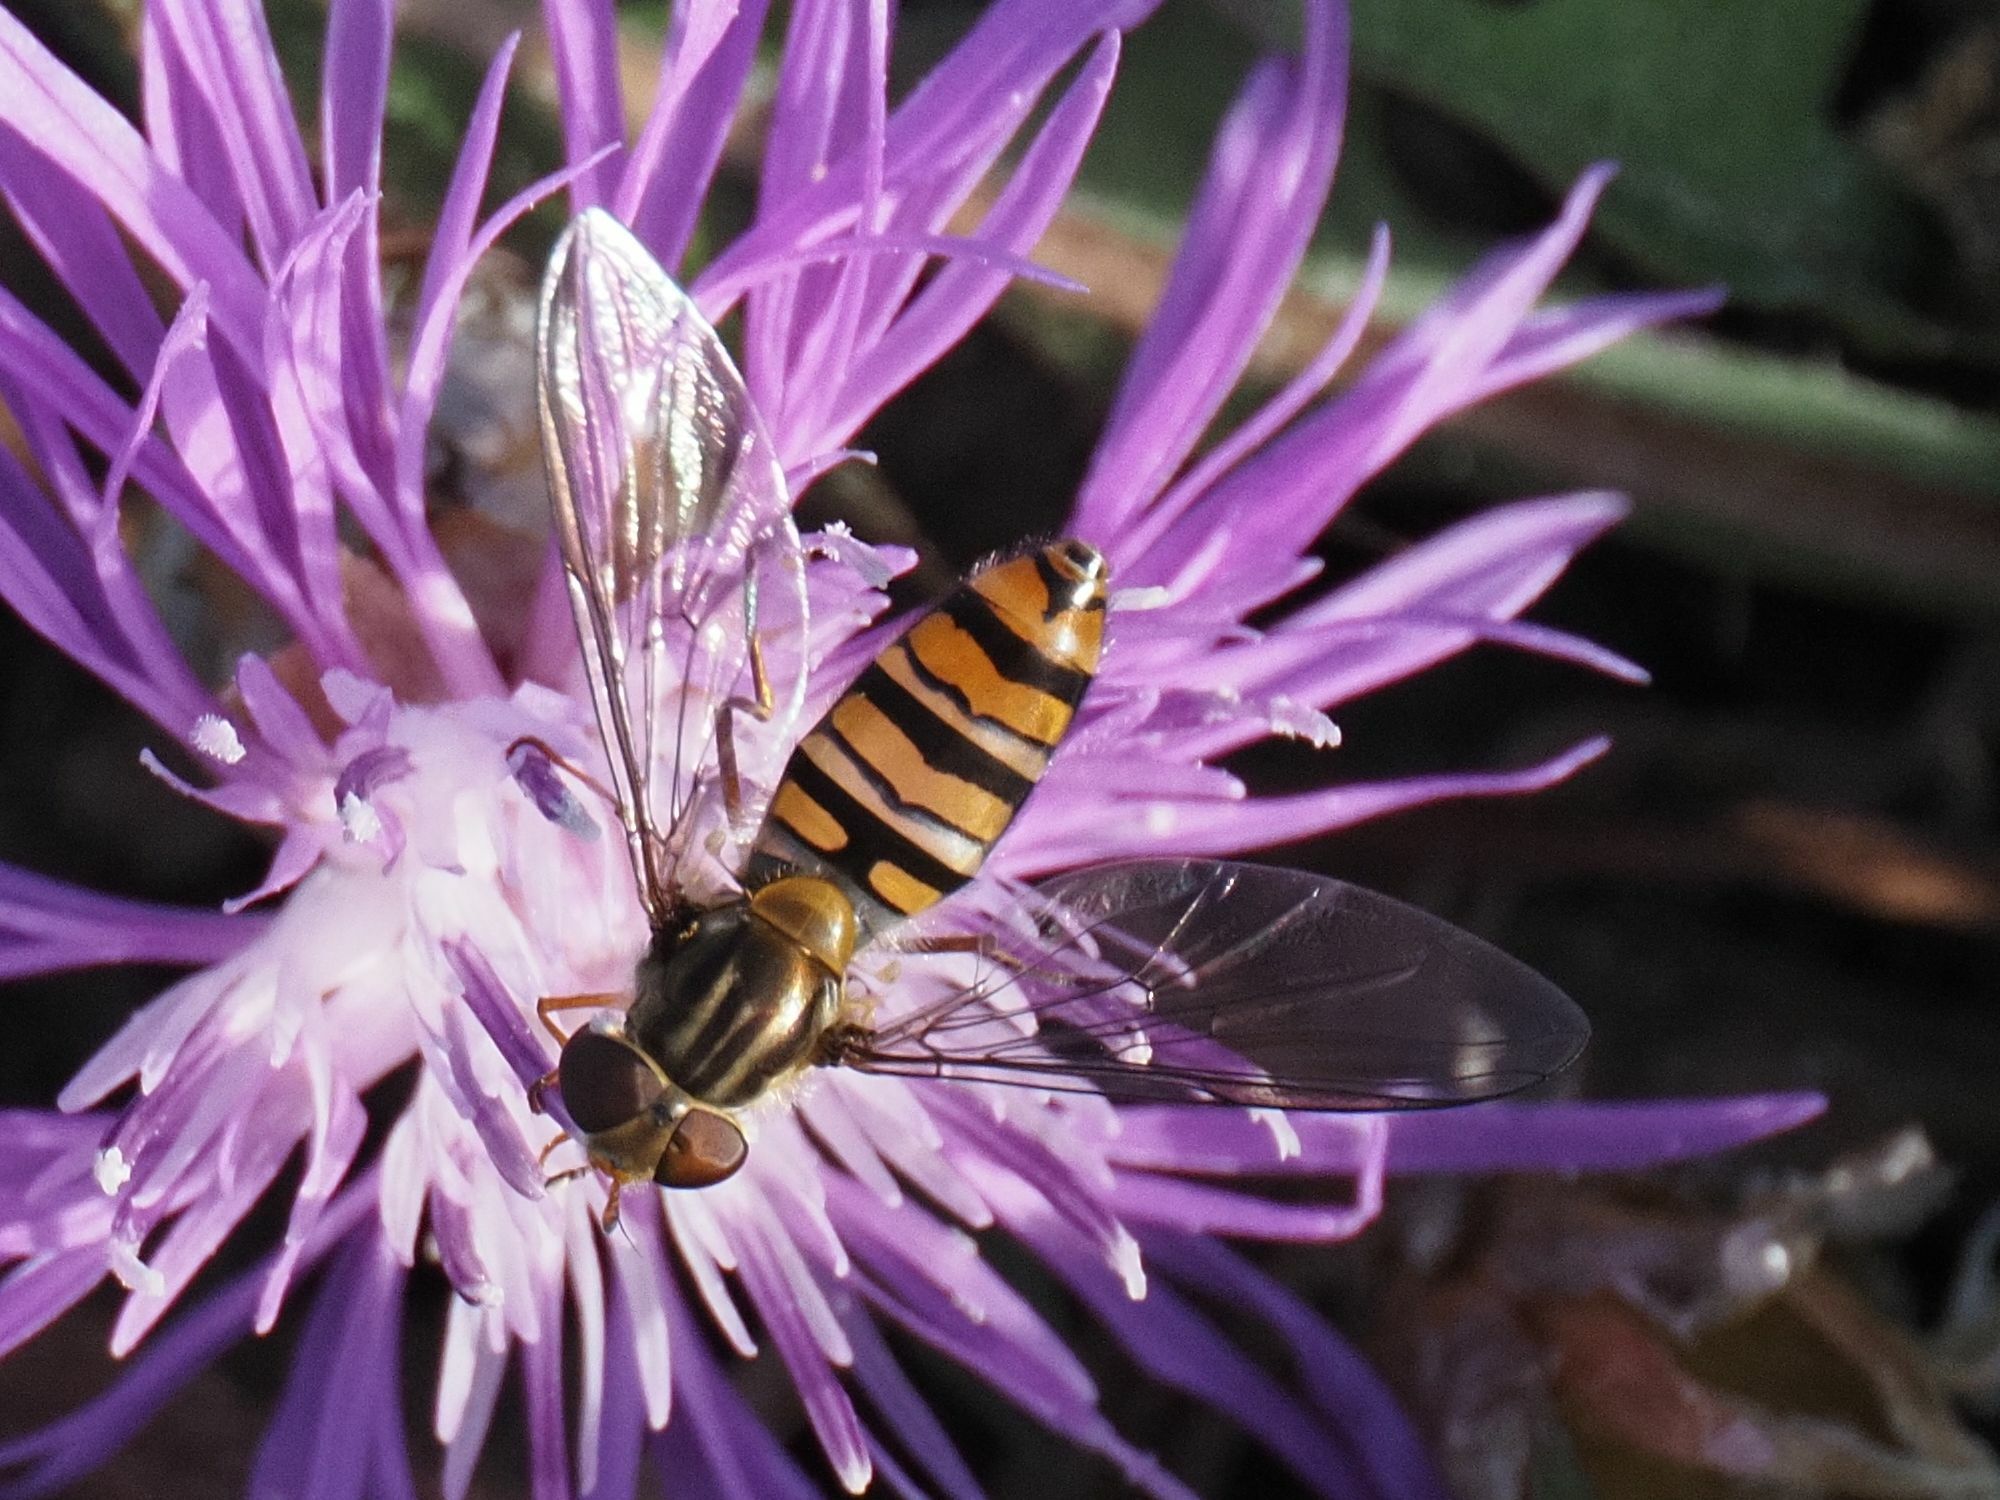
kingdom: Animalia
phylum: Arthropoda
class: Insecta
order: Diptera
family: Syrphidae
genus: Episyrphus
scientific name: Episyrphus balteatus
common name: Marmalade hoverfly
